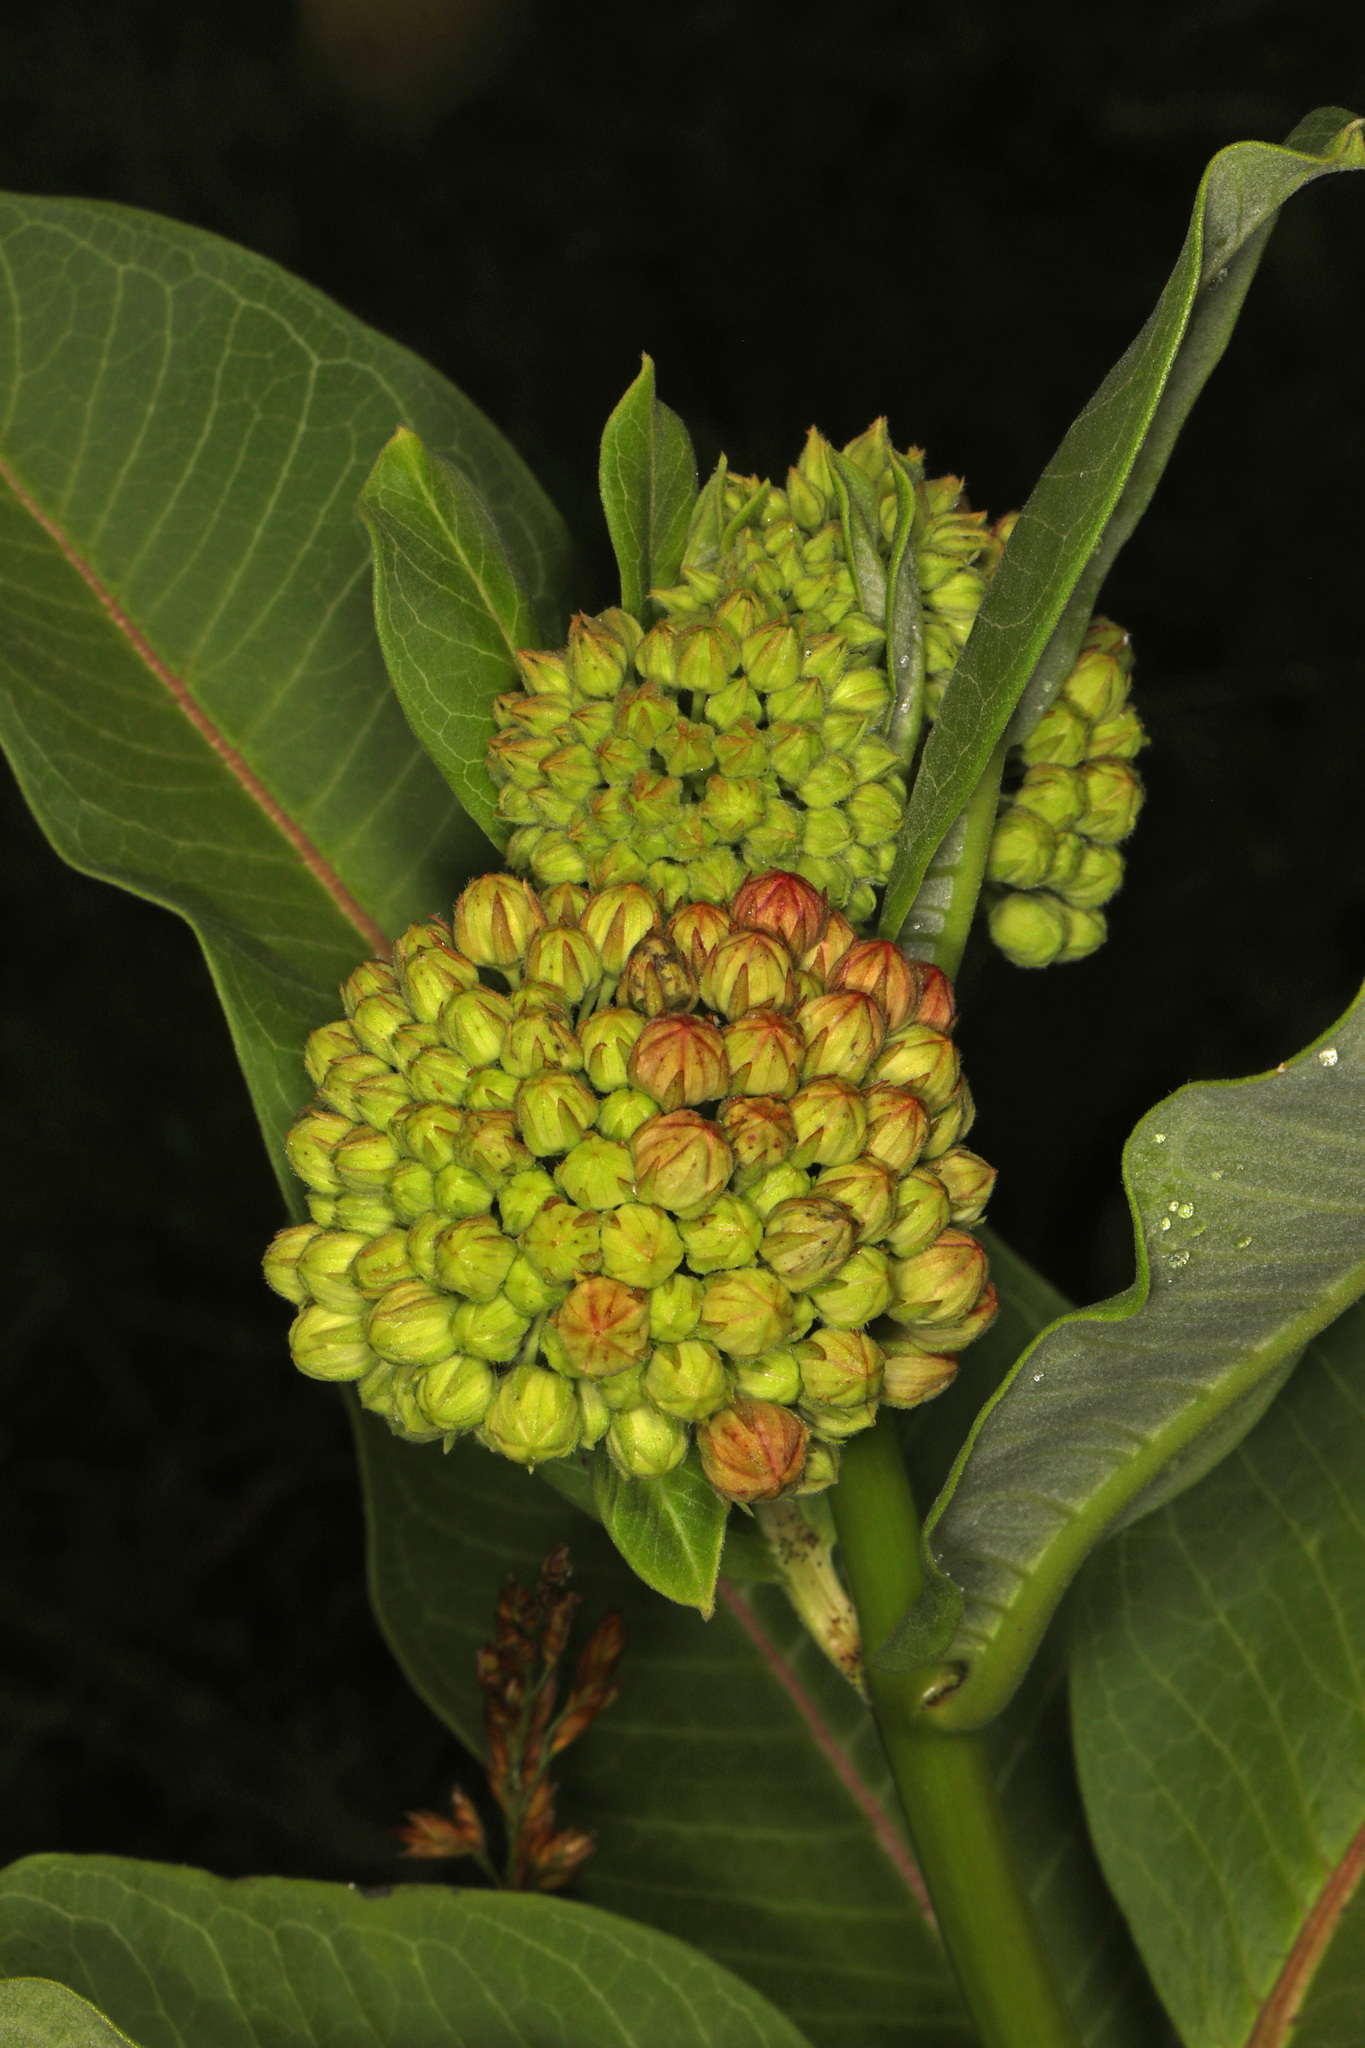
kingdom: Plantae
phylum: Tracheophyta
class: Magnoliopsida
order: Gentianales
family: Apocynaceae
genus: Asclepias
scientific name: Asclepias syriaca
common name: Common milkweed
